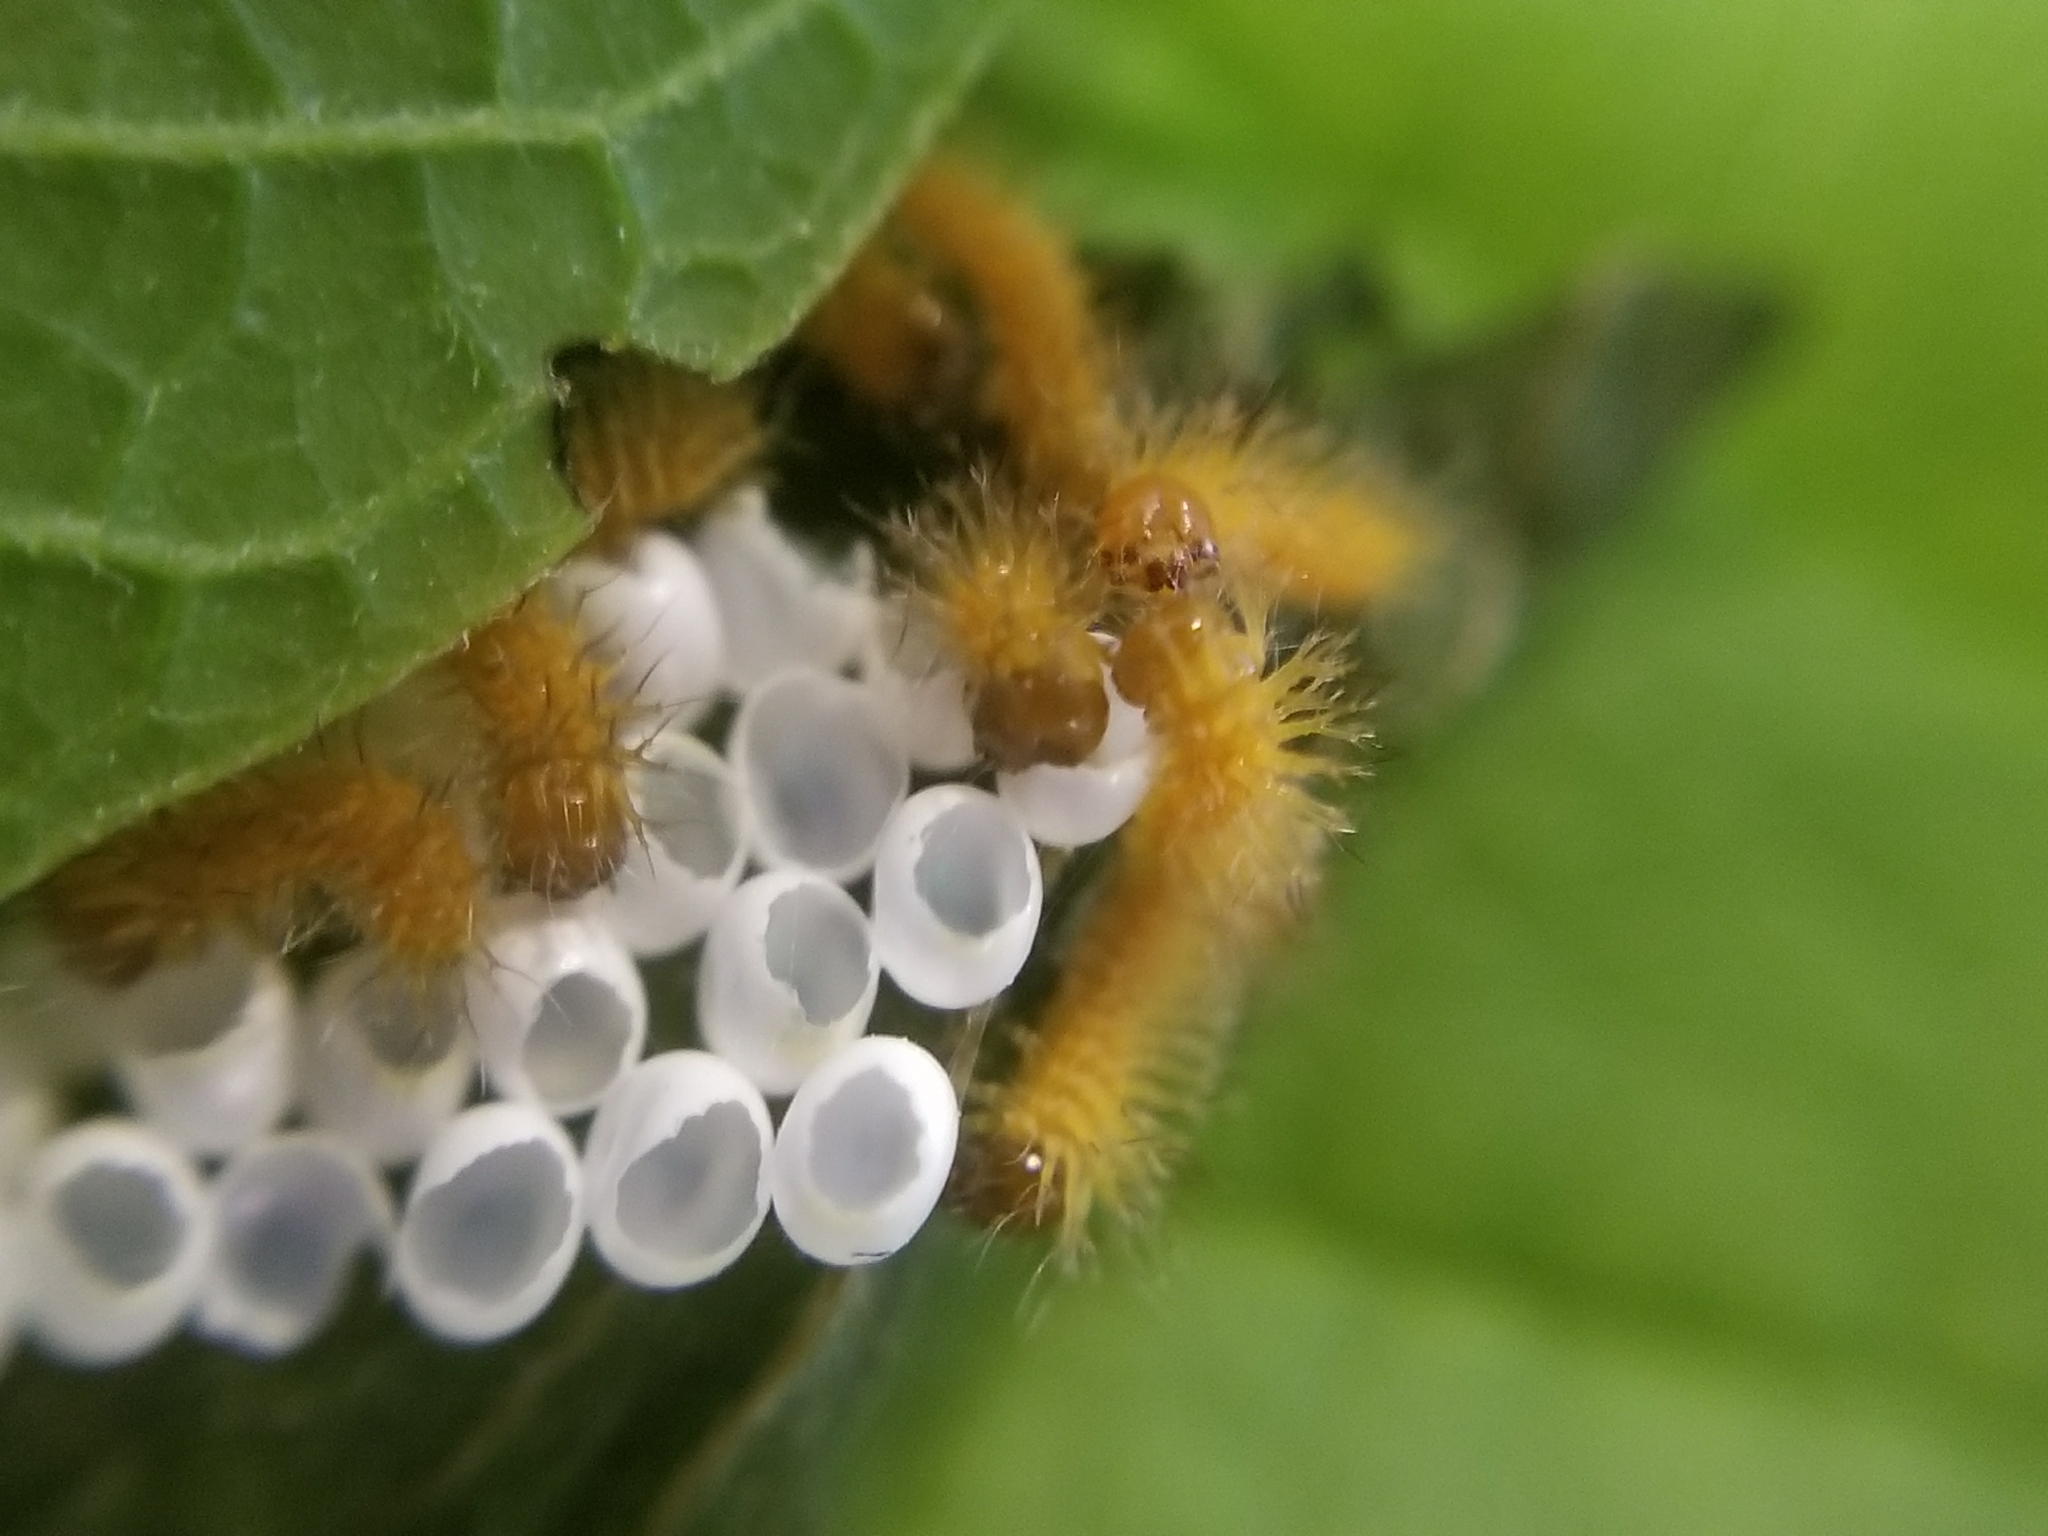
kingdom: Animalia
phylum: Arthropoda
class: Insecta
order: Lepidoptera
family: Saturniidae
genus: Automeris
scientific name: Automeris io
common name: Io moth
